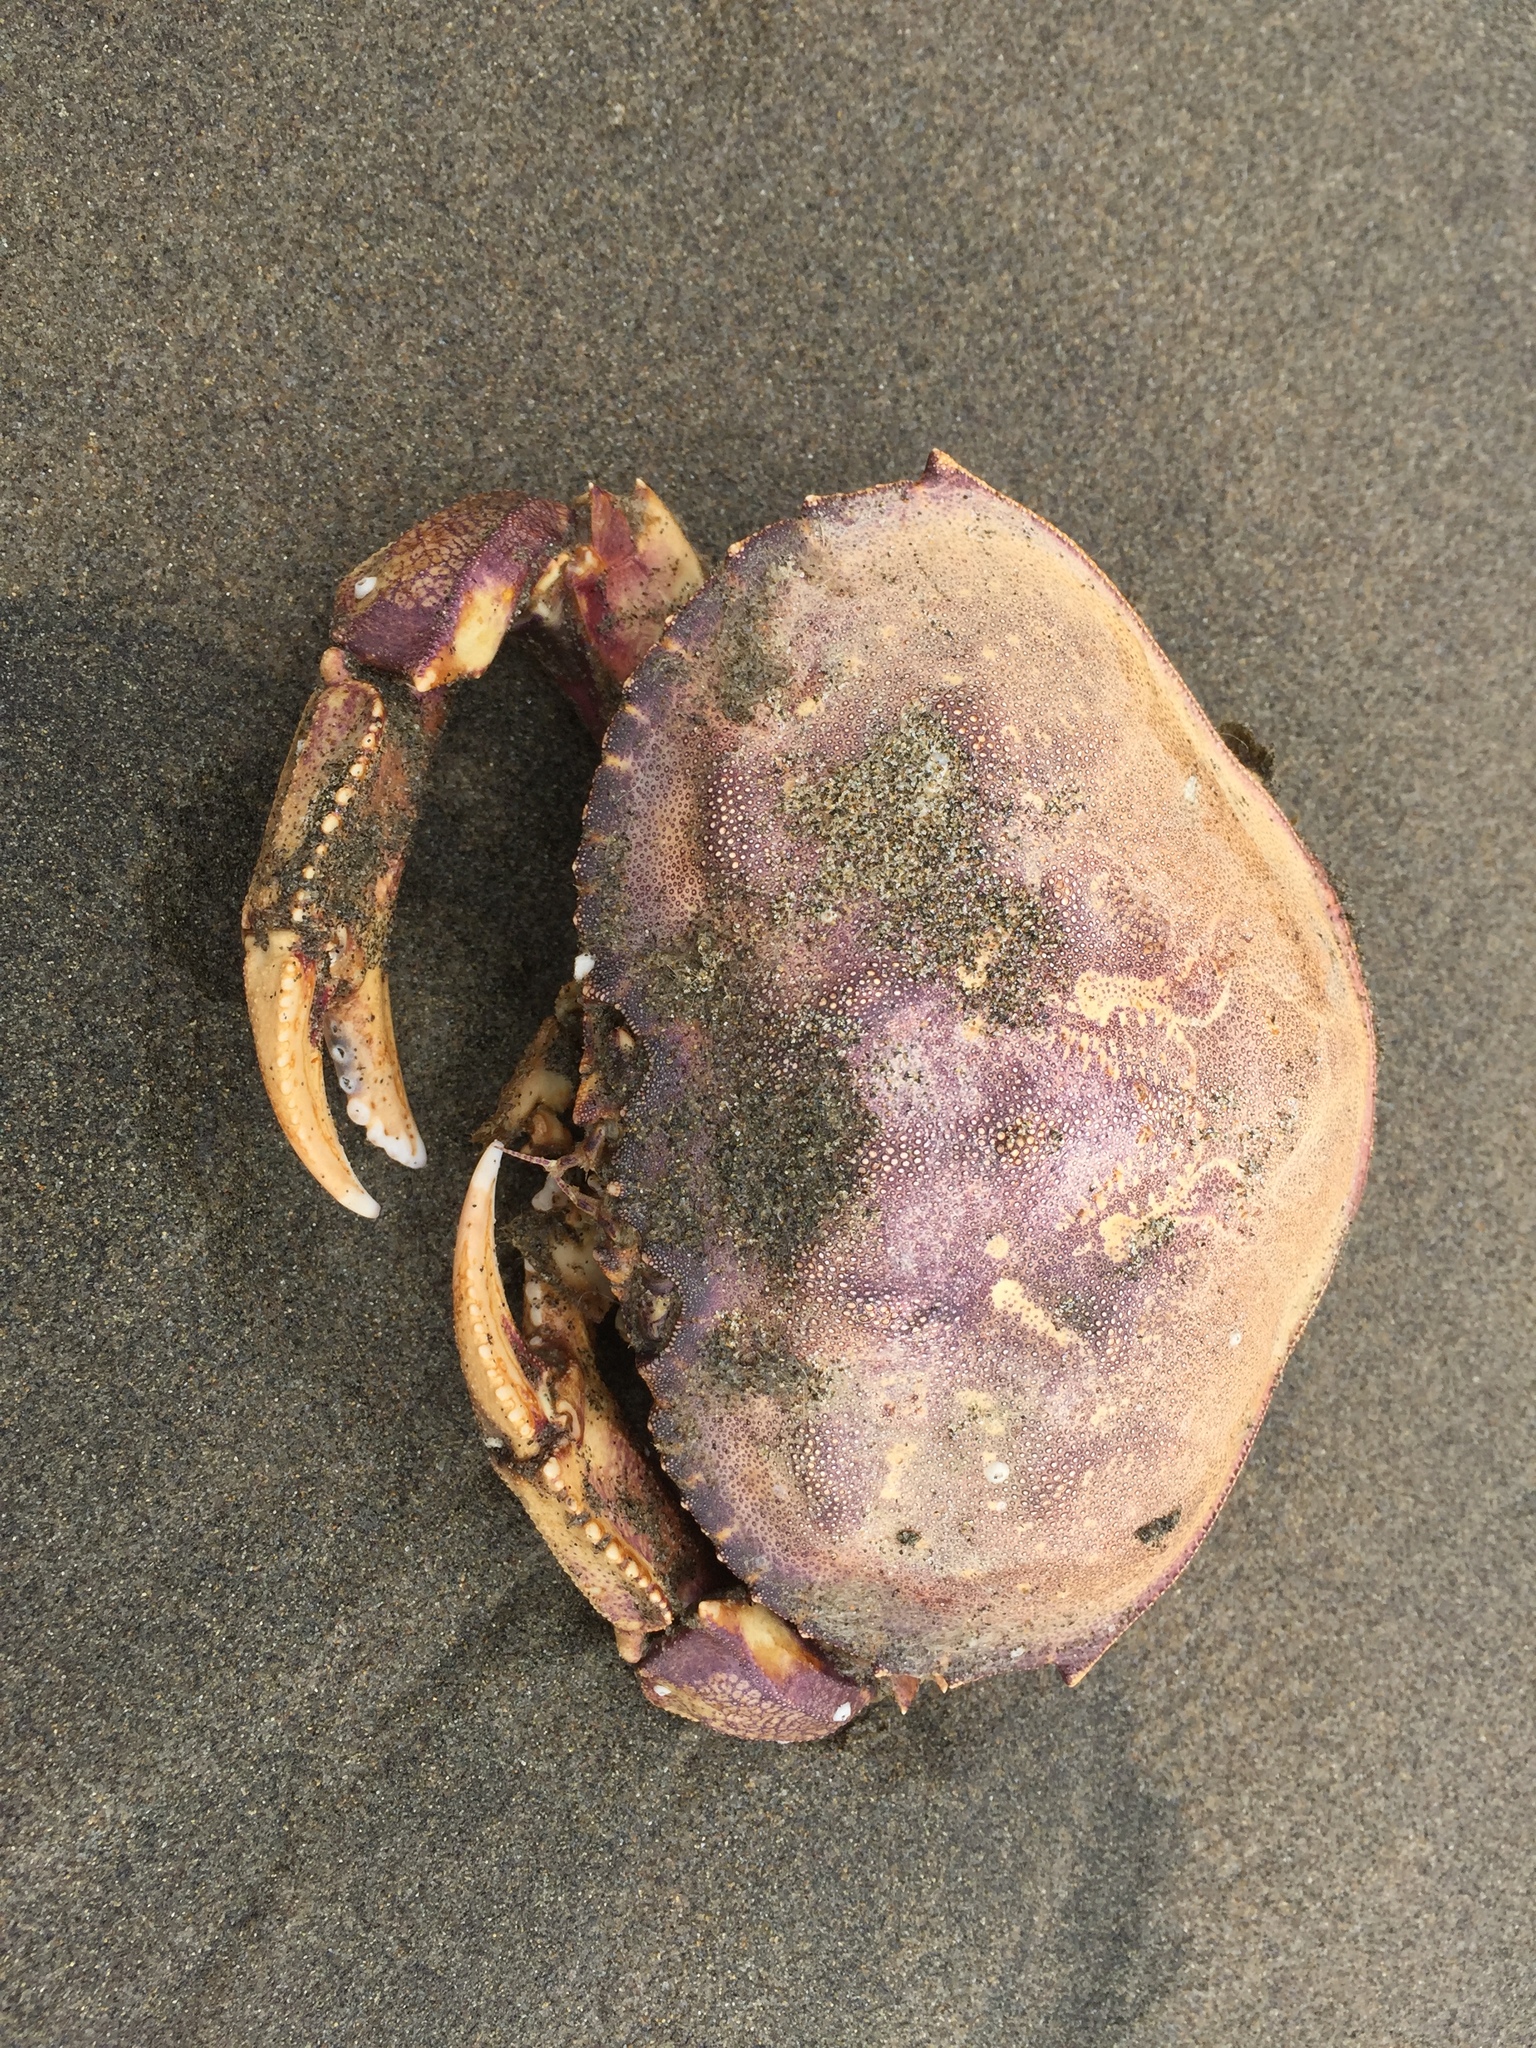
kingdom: Animalia
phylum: Arthropoda
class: Malacostraca
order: Decapoda
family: Cancridae
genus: Metacarcinus
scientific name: Metacarcinus magister
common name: Californian crab
